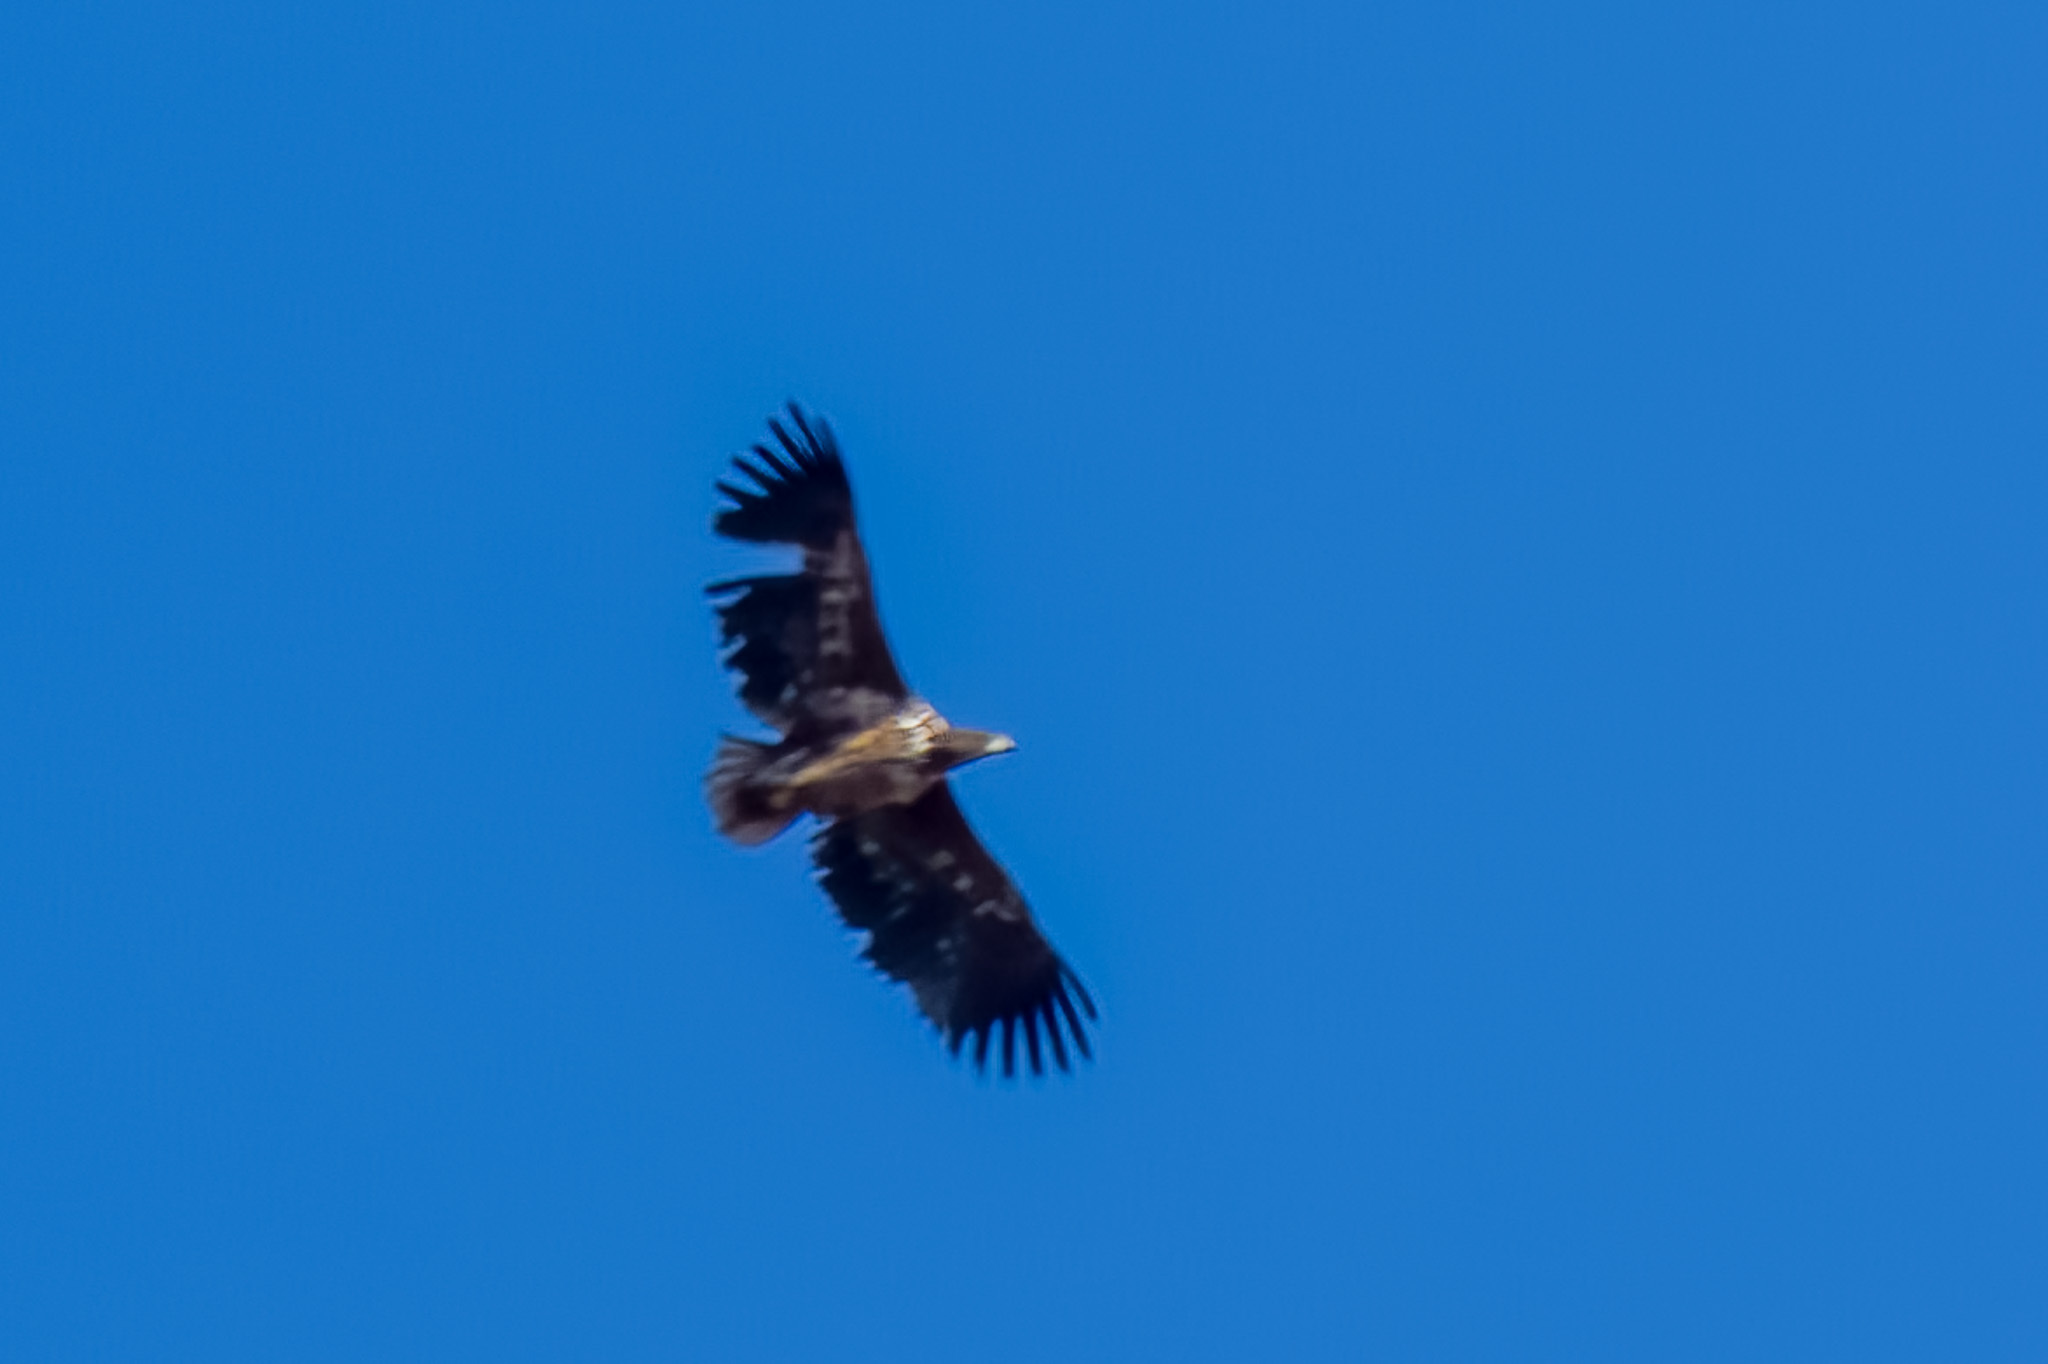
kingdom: Animalia
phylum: Chordata
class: Aves
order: Accipitriformes
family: Accipitridae
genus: Haliaeetus
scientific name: Haliaeetus albicilla
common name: White-tailed eagle
